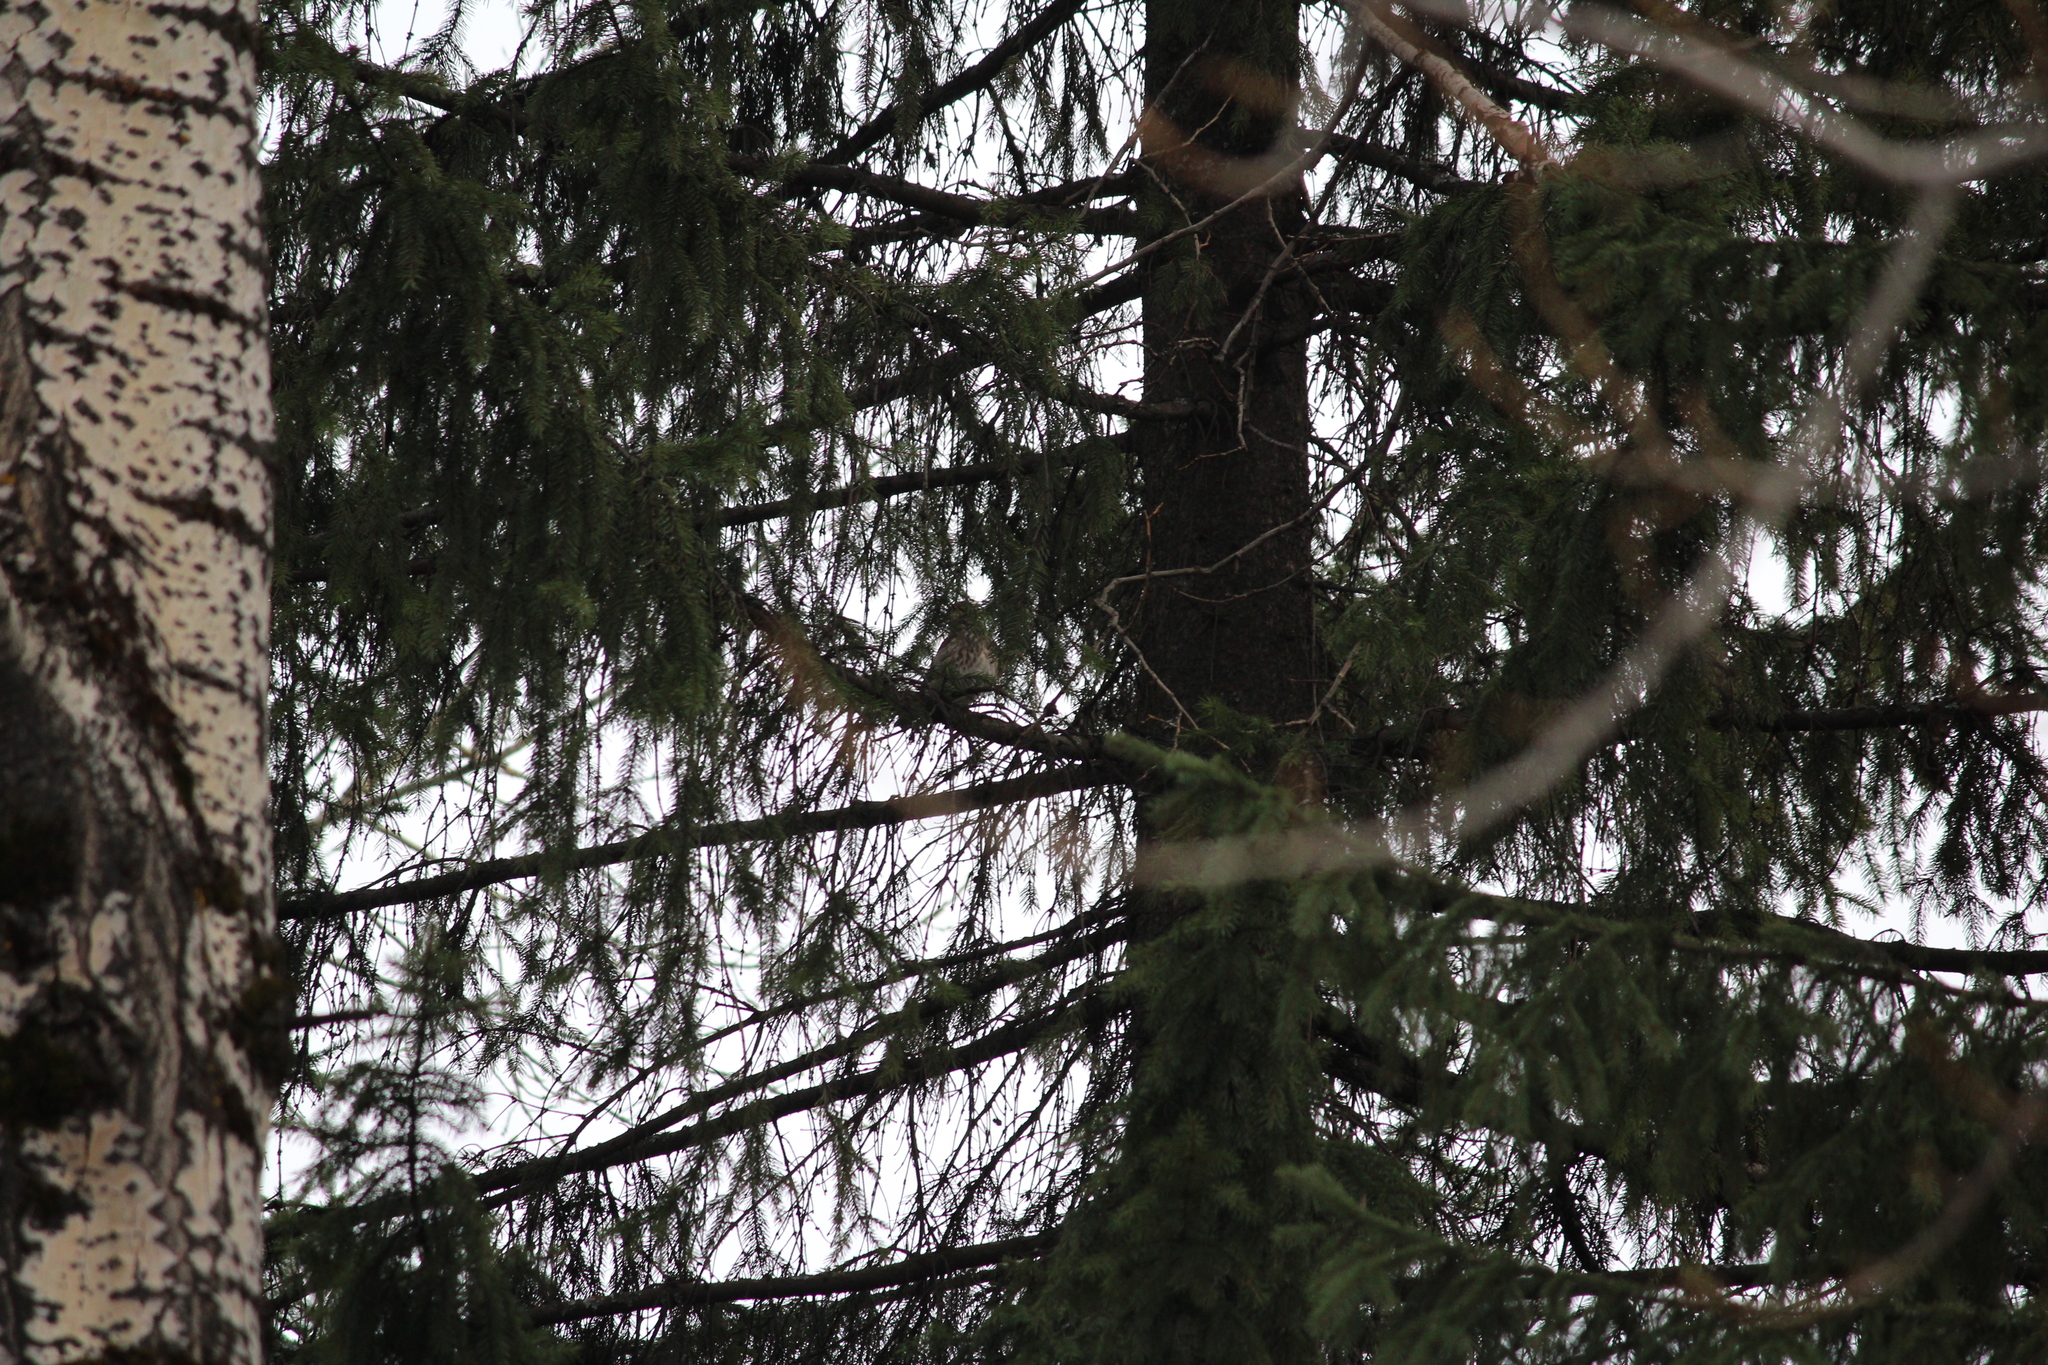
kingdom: Animalia
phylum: Chordata
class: Aves
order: Passeriformes
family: Turdidae
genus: Turdus
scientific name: Turdus atrogularis
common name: Black-throated thrush
